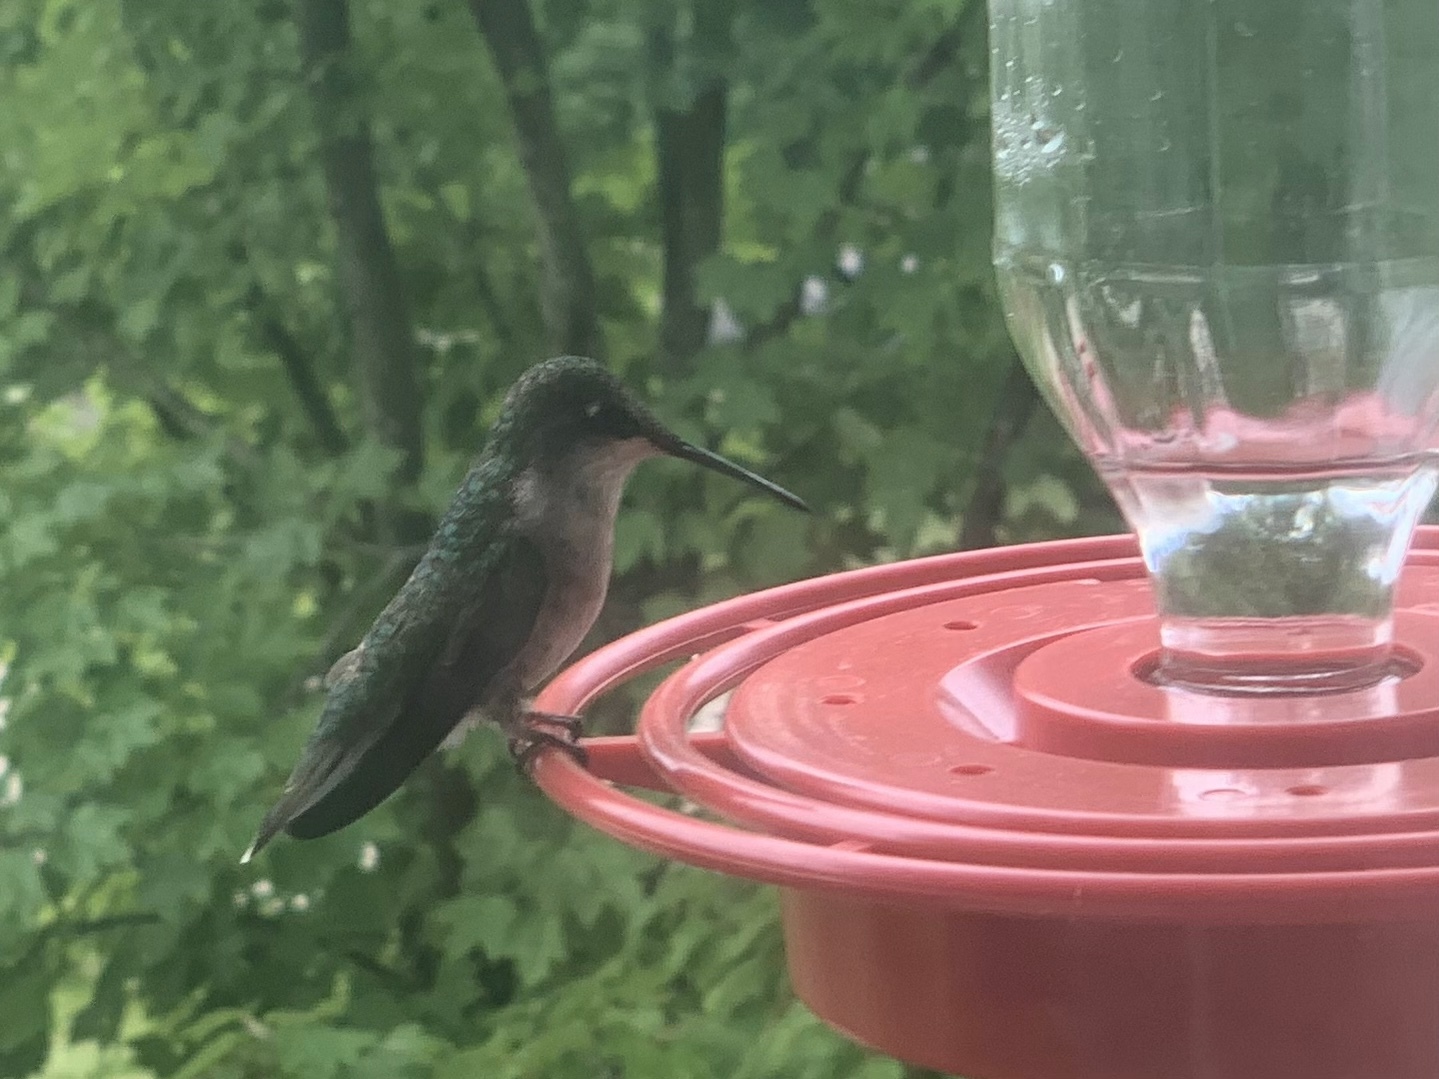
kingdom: Animalia
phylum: Chordata
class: Aves
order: Apodiformes
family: Trochilidae
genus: Archilochus
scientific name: Archilochus colubris
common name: Ruby-throated hummingbird
